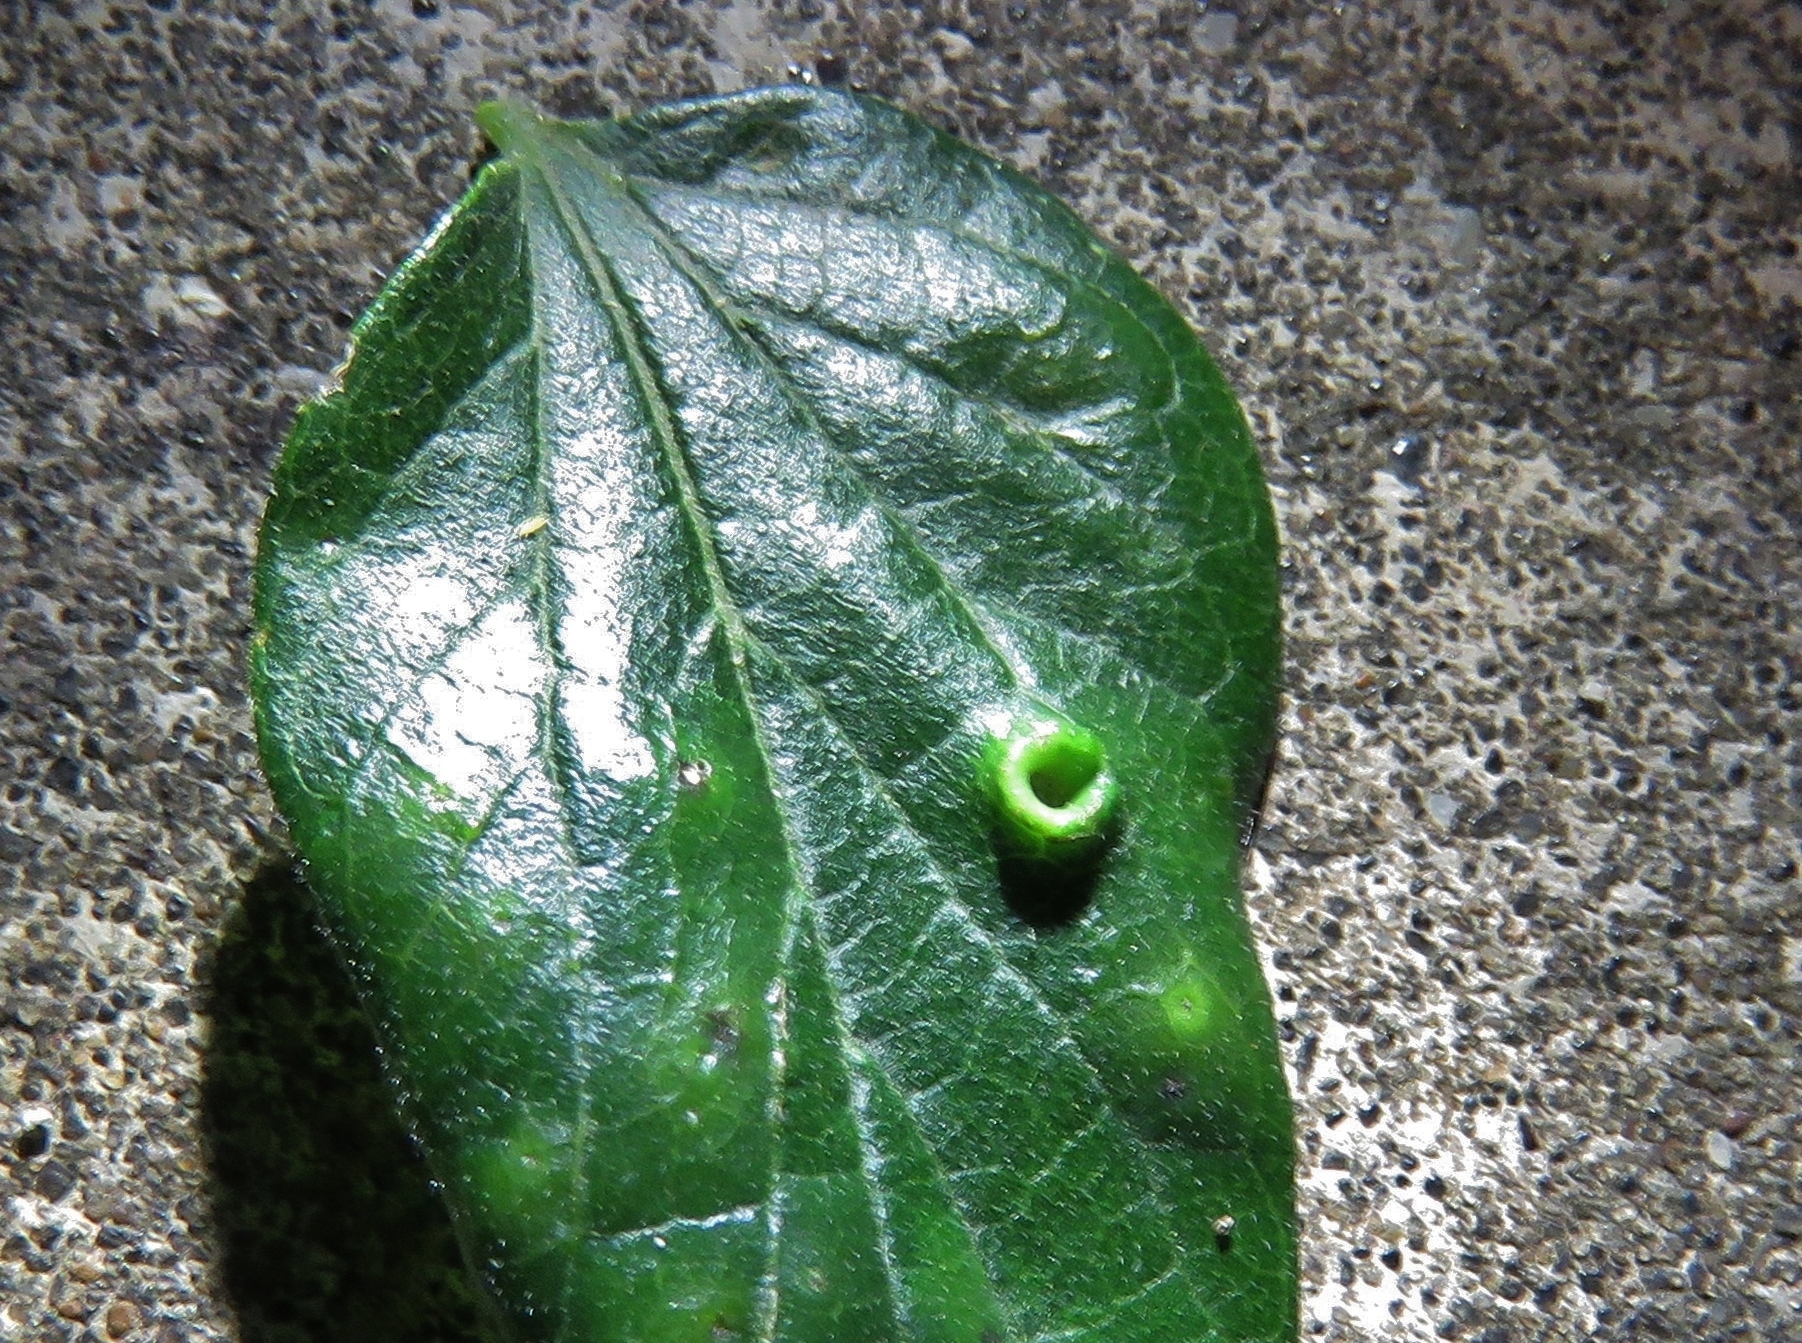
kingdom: Animalia
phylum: Arthropoda
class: Insecta
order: Hemiptera
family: Aphalaridae
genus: Pachypsylla
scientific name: Pachypsylla celtidismamma
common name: Hackberry nipplegall psyllid
